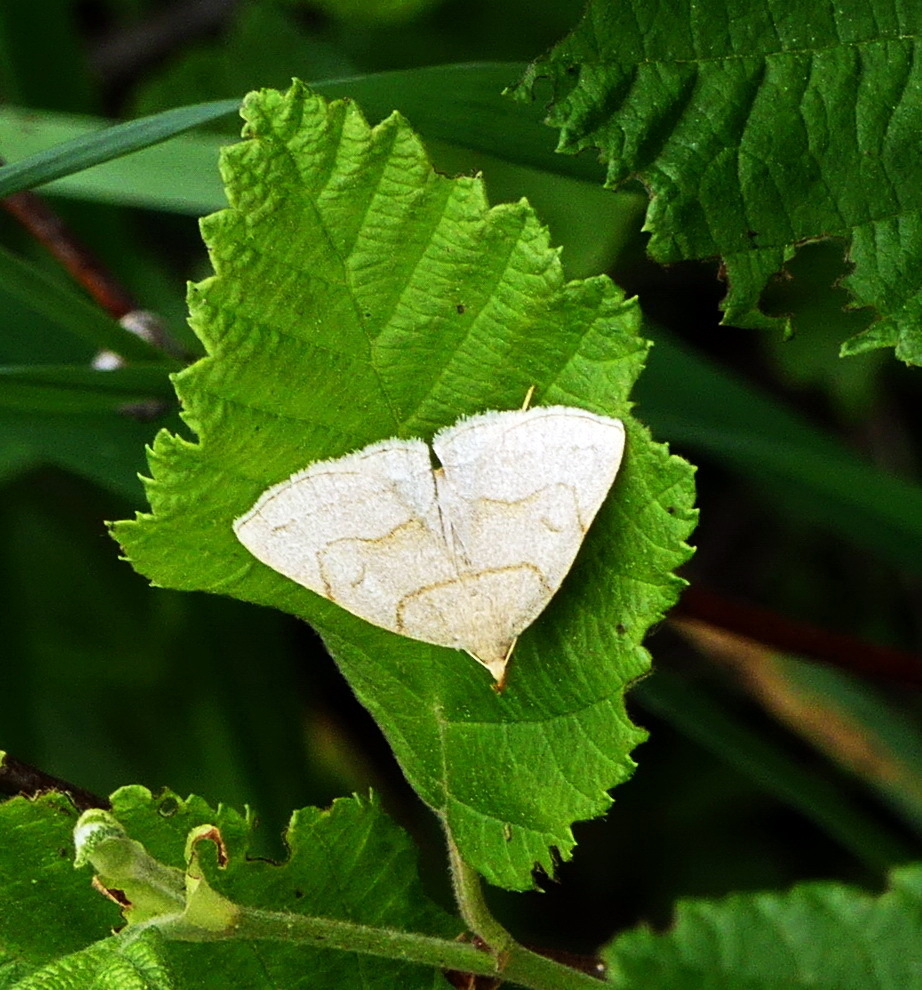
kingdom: Animalia
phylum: Arthropoda
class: Insecta
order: Lepidoptera
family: Erebidae
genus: Zanclognatha
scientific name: Zanclognatha pedipilalis
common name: Grayish fan-foot
